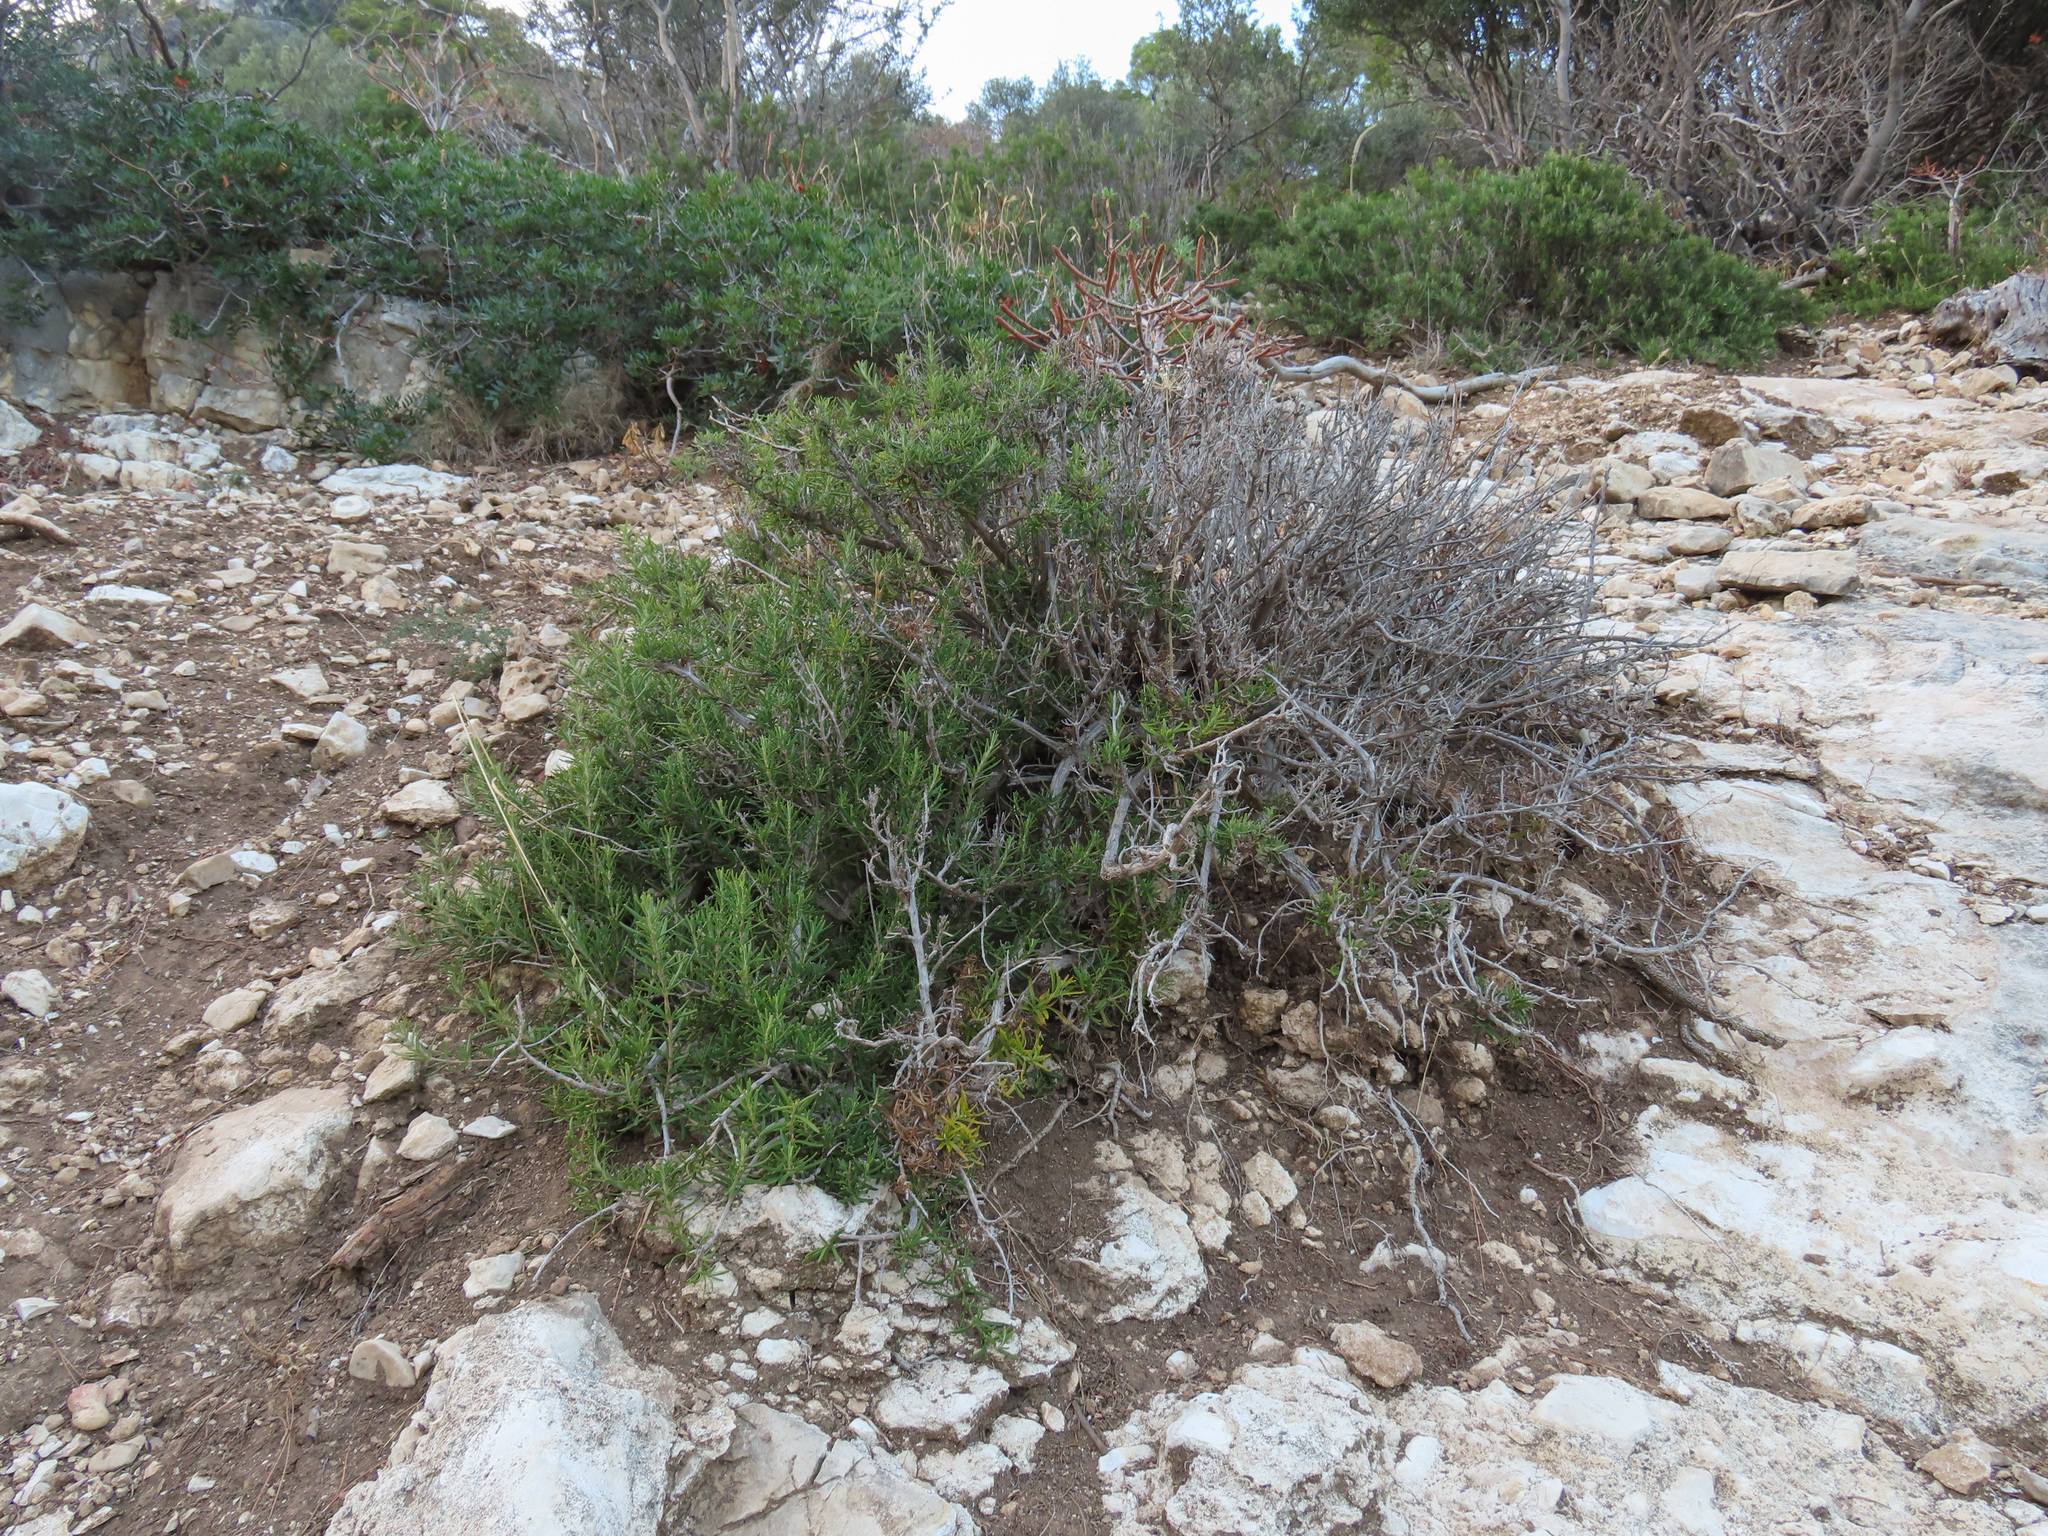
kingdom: Plantae
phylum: Tracheophyta
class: Magnoliopsida
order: Lamiales
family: Lamiaceae
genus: Salvia
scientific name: Salvia rosmarinus
